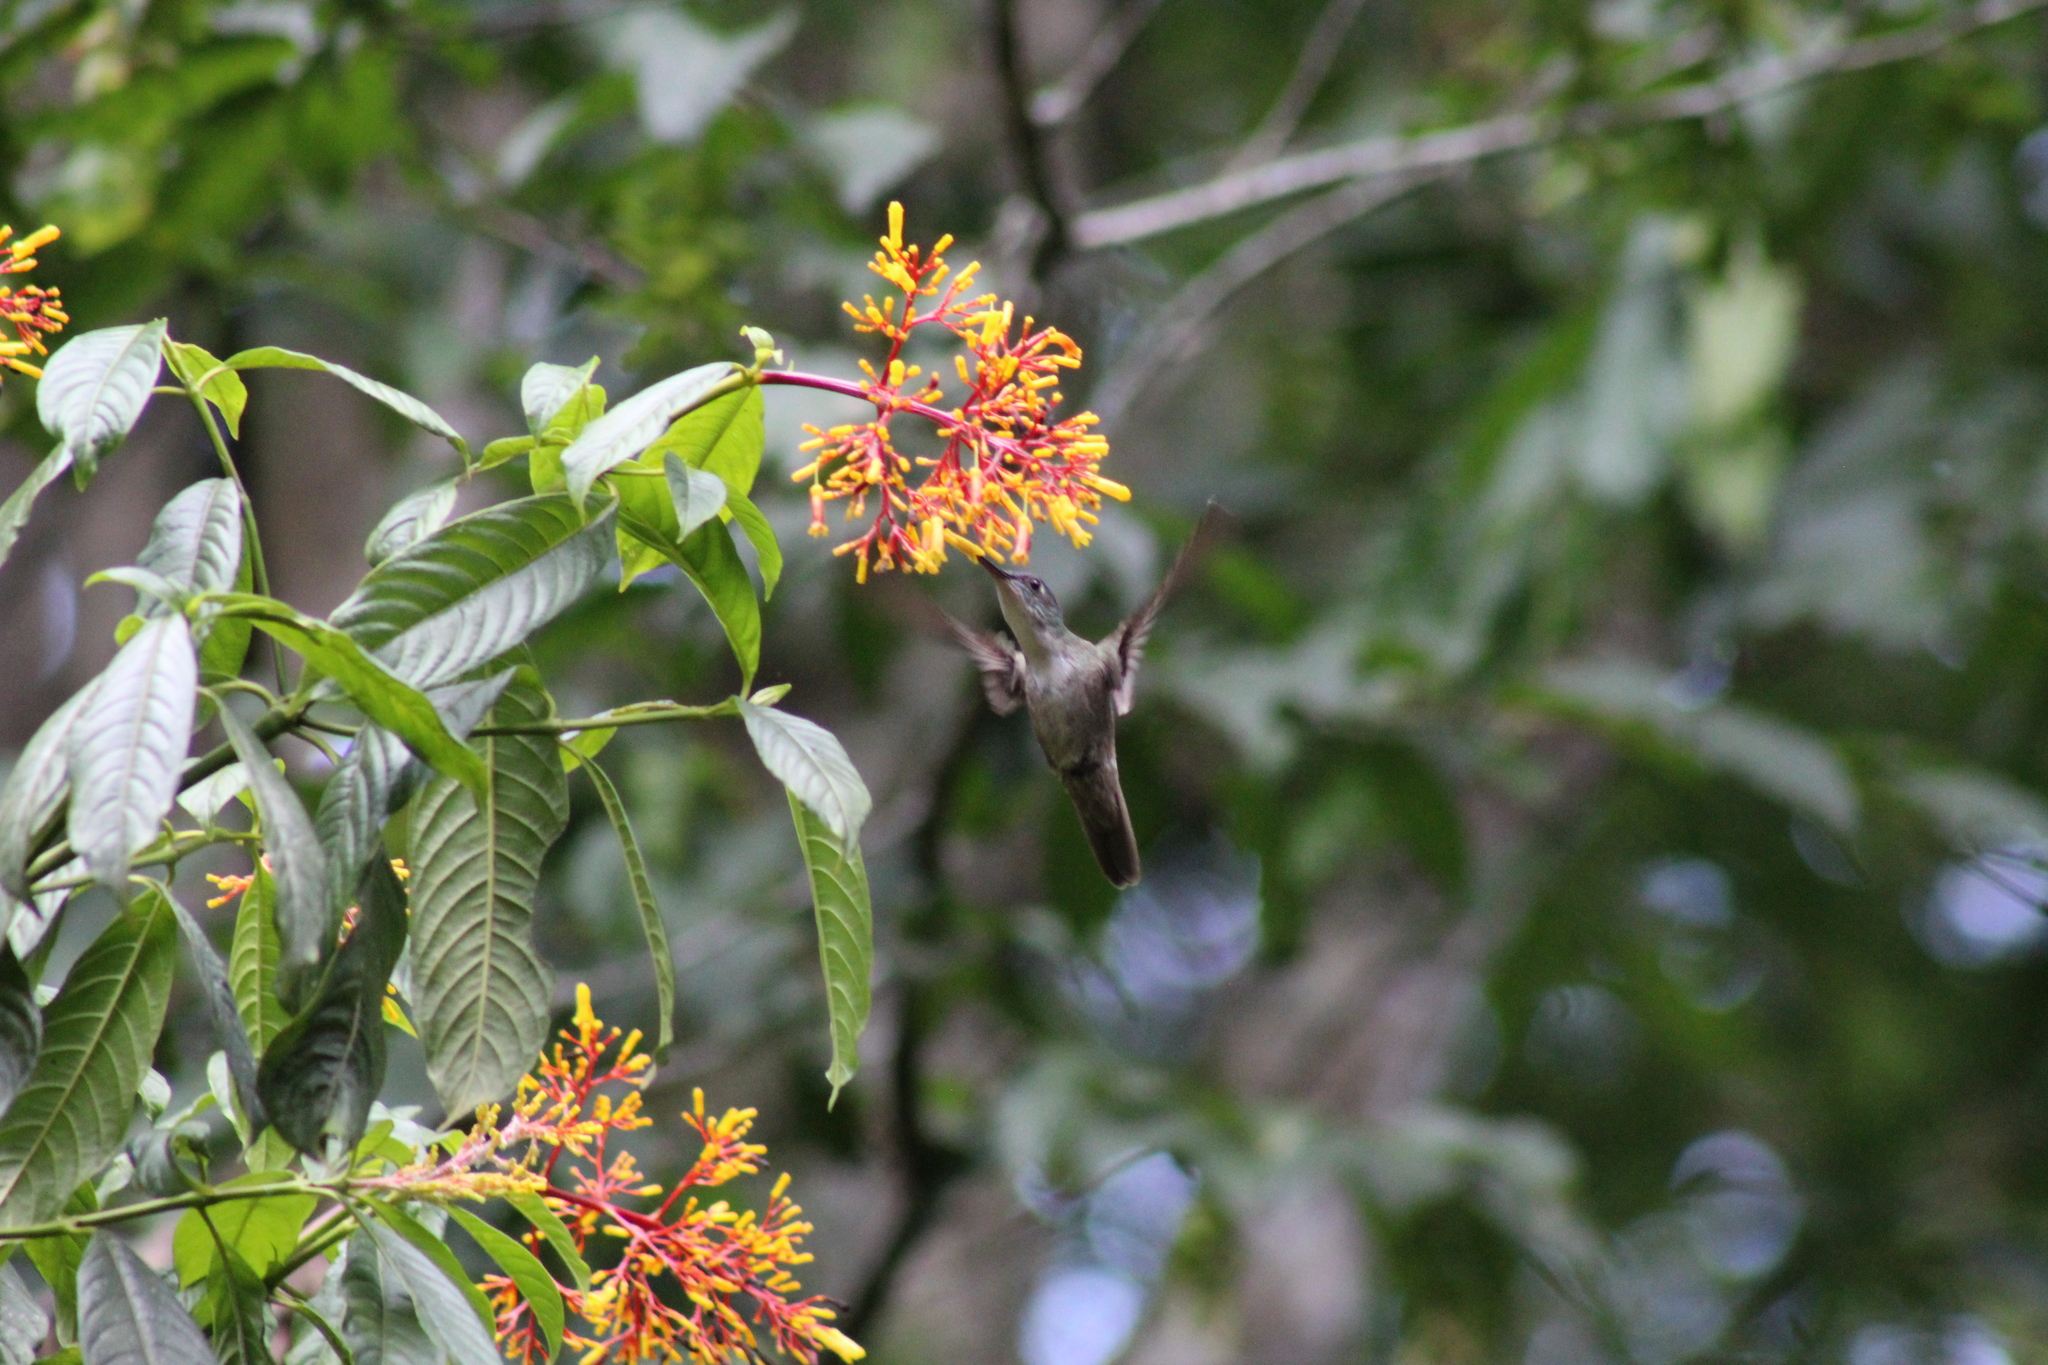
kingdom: Animalia
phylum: Chordata
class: Aves
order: Apodiformes
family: Trochilidae
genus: Saucerottia
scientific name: Saucerottia cyanocephala
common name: Azure-crowned hummingbird
